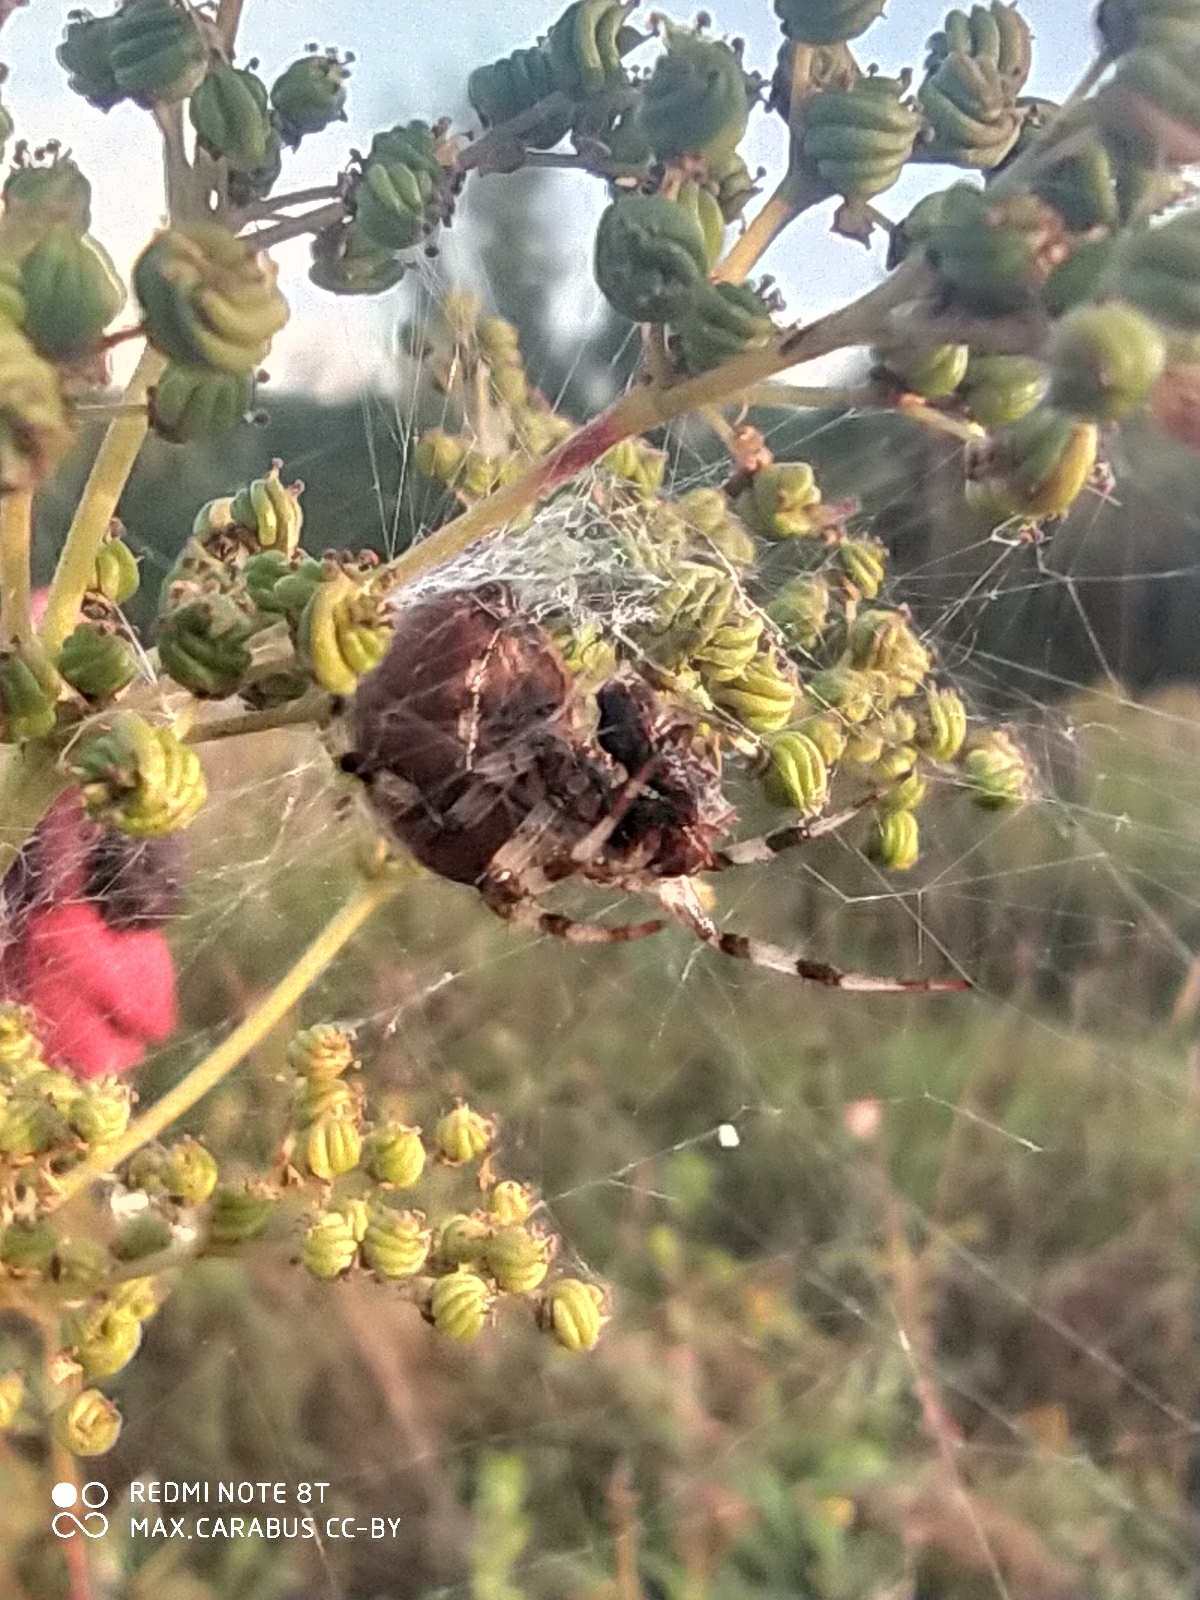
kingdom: Animalia
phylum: Arthropoda
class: Arachnida
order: Araneae
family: Araneidae
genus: Araneus
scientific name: Araneus quadratus
